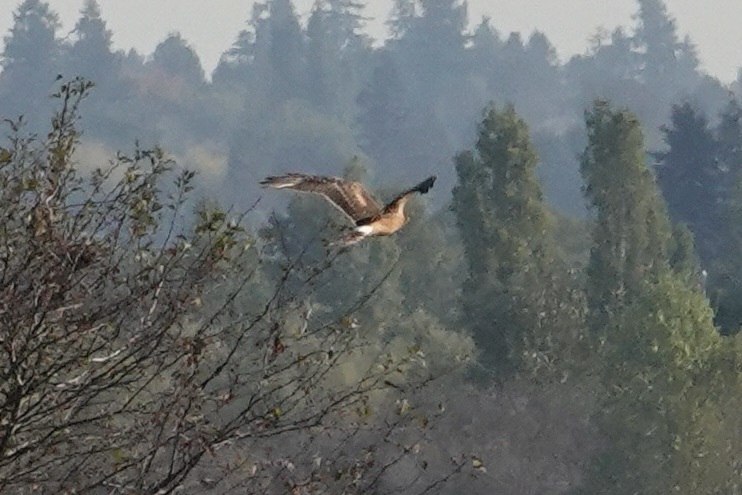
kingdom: Animalia
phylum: Chordata
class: Aves
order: Accipitriformes
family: Accipitridae
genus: Circus
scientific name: Circus cyaneus
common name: Hen harrier
